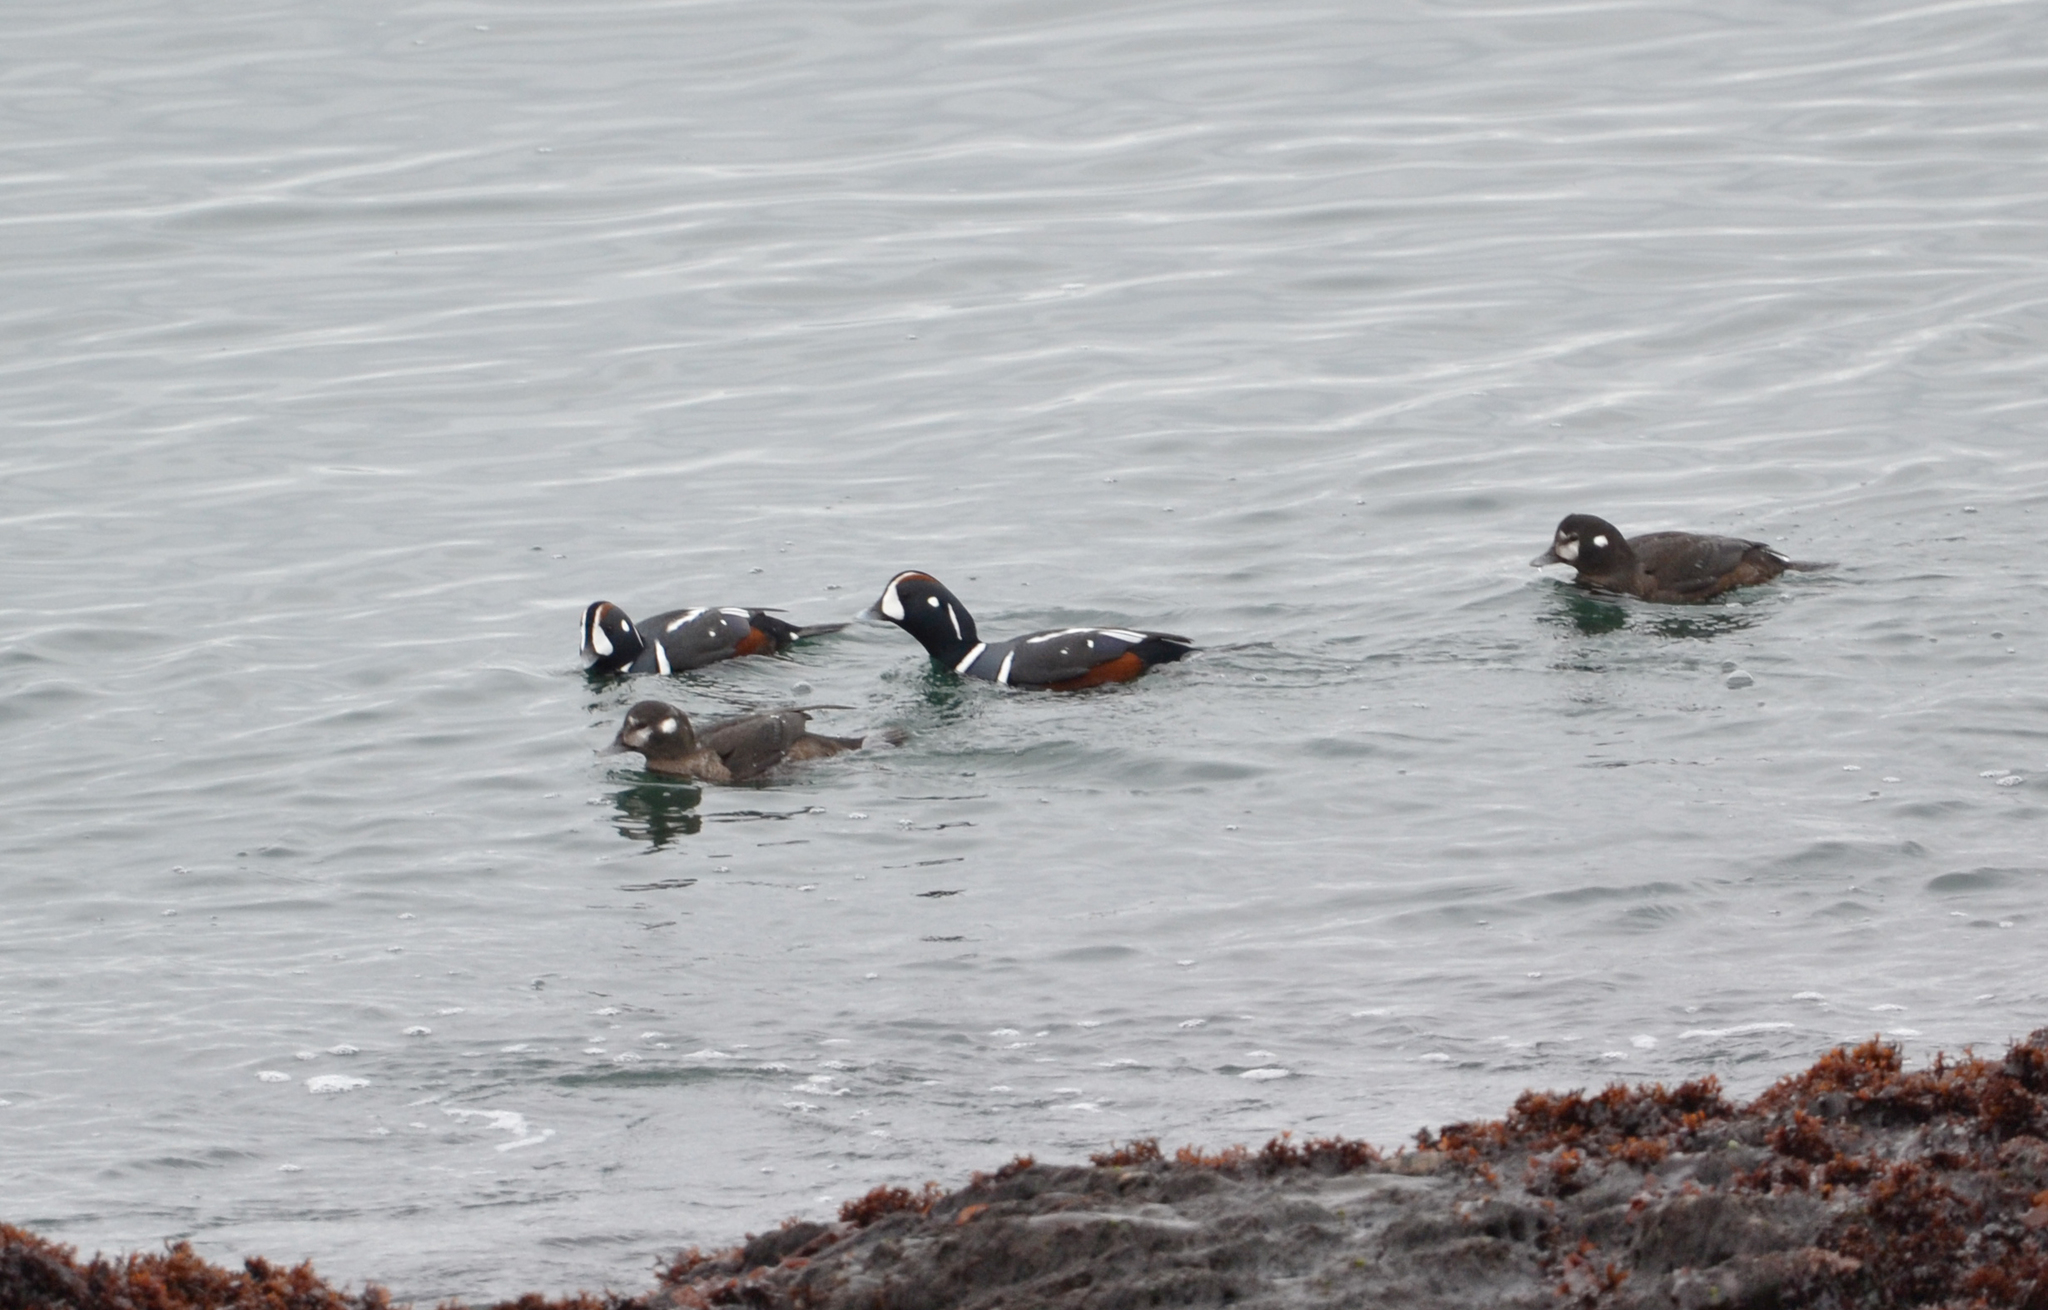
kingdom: Animalia
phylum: Chordata
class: Aves
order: Anseriformes
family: Anatidae
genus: Histrionicus
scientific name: Histrionicus histrionicus
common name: Harlequin duck
